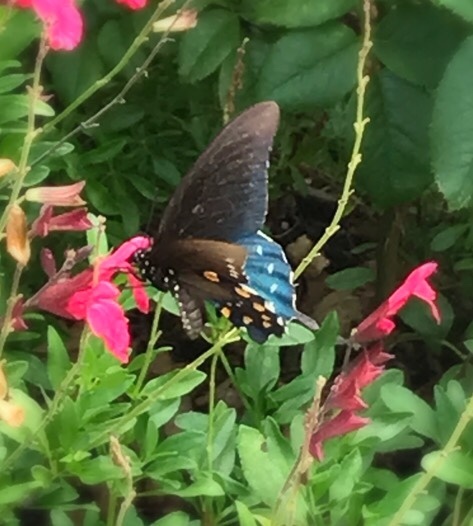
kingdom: Animalia
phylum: Arthropoda
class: Insecta
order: Lepidoptera
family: Papilionidae
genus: Battus
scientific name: Battus philenor
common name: Pipevine swallowtail
